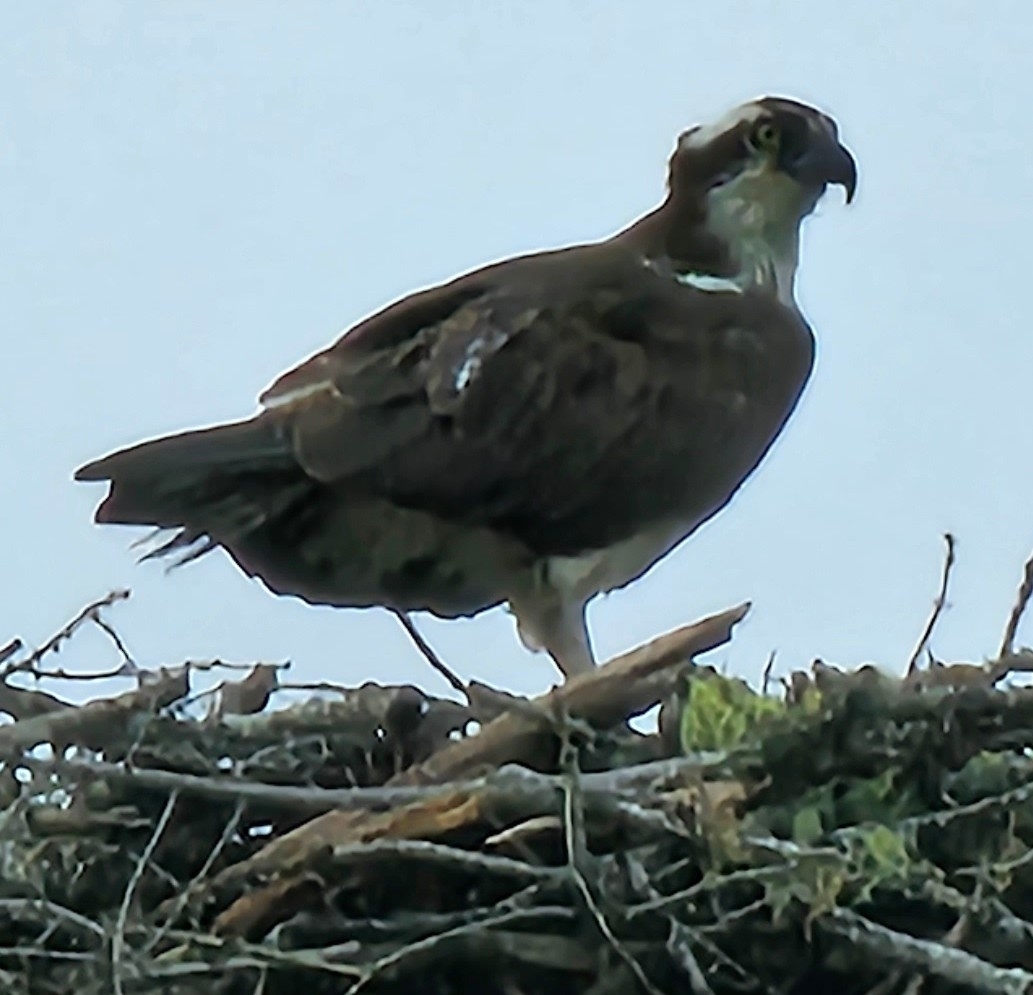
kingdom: Animalia
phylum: Chordata
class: Aves
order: Accipitriformes
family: Pandionidae
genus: Pandion
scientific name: Pandion haliaetus
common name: Osprey
